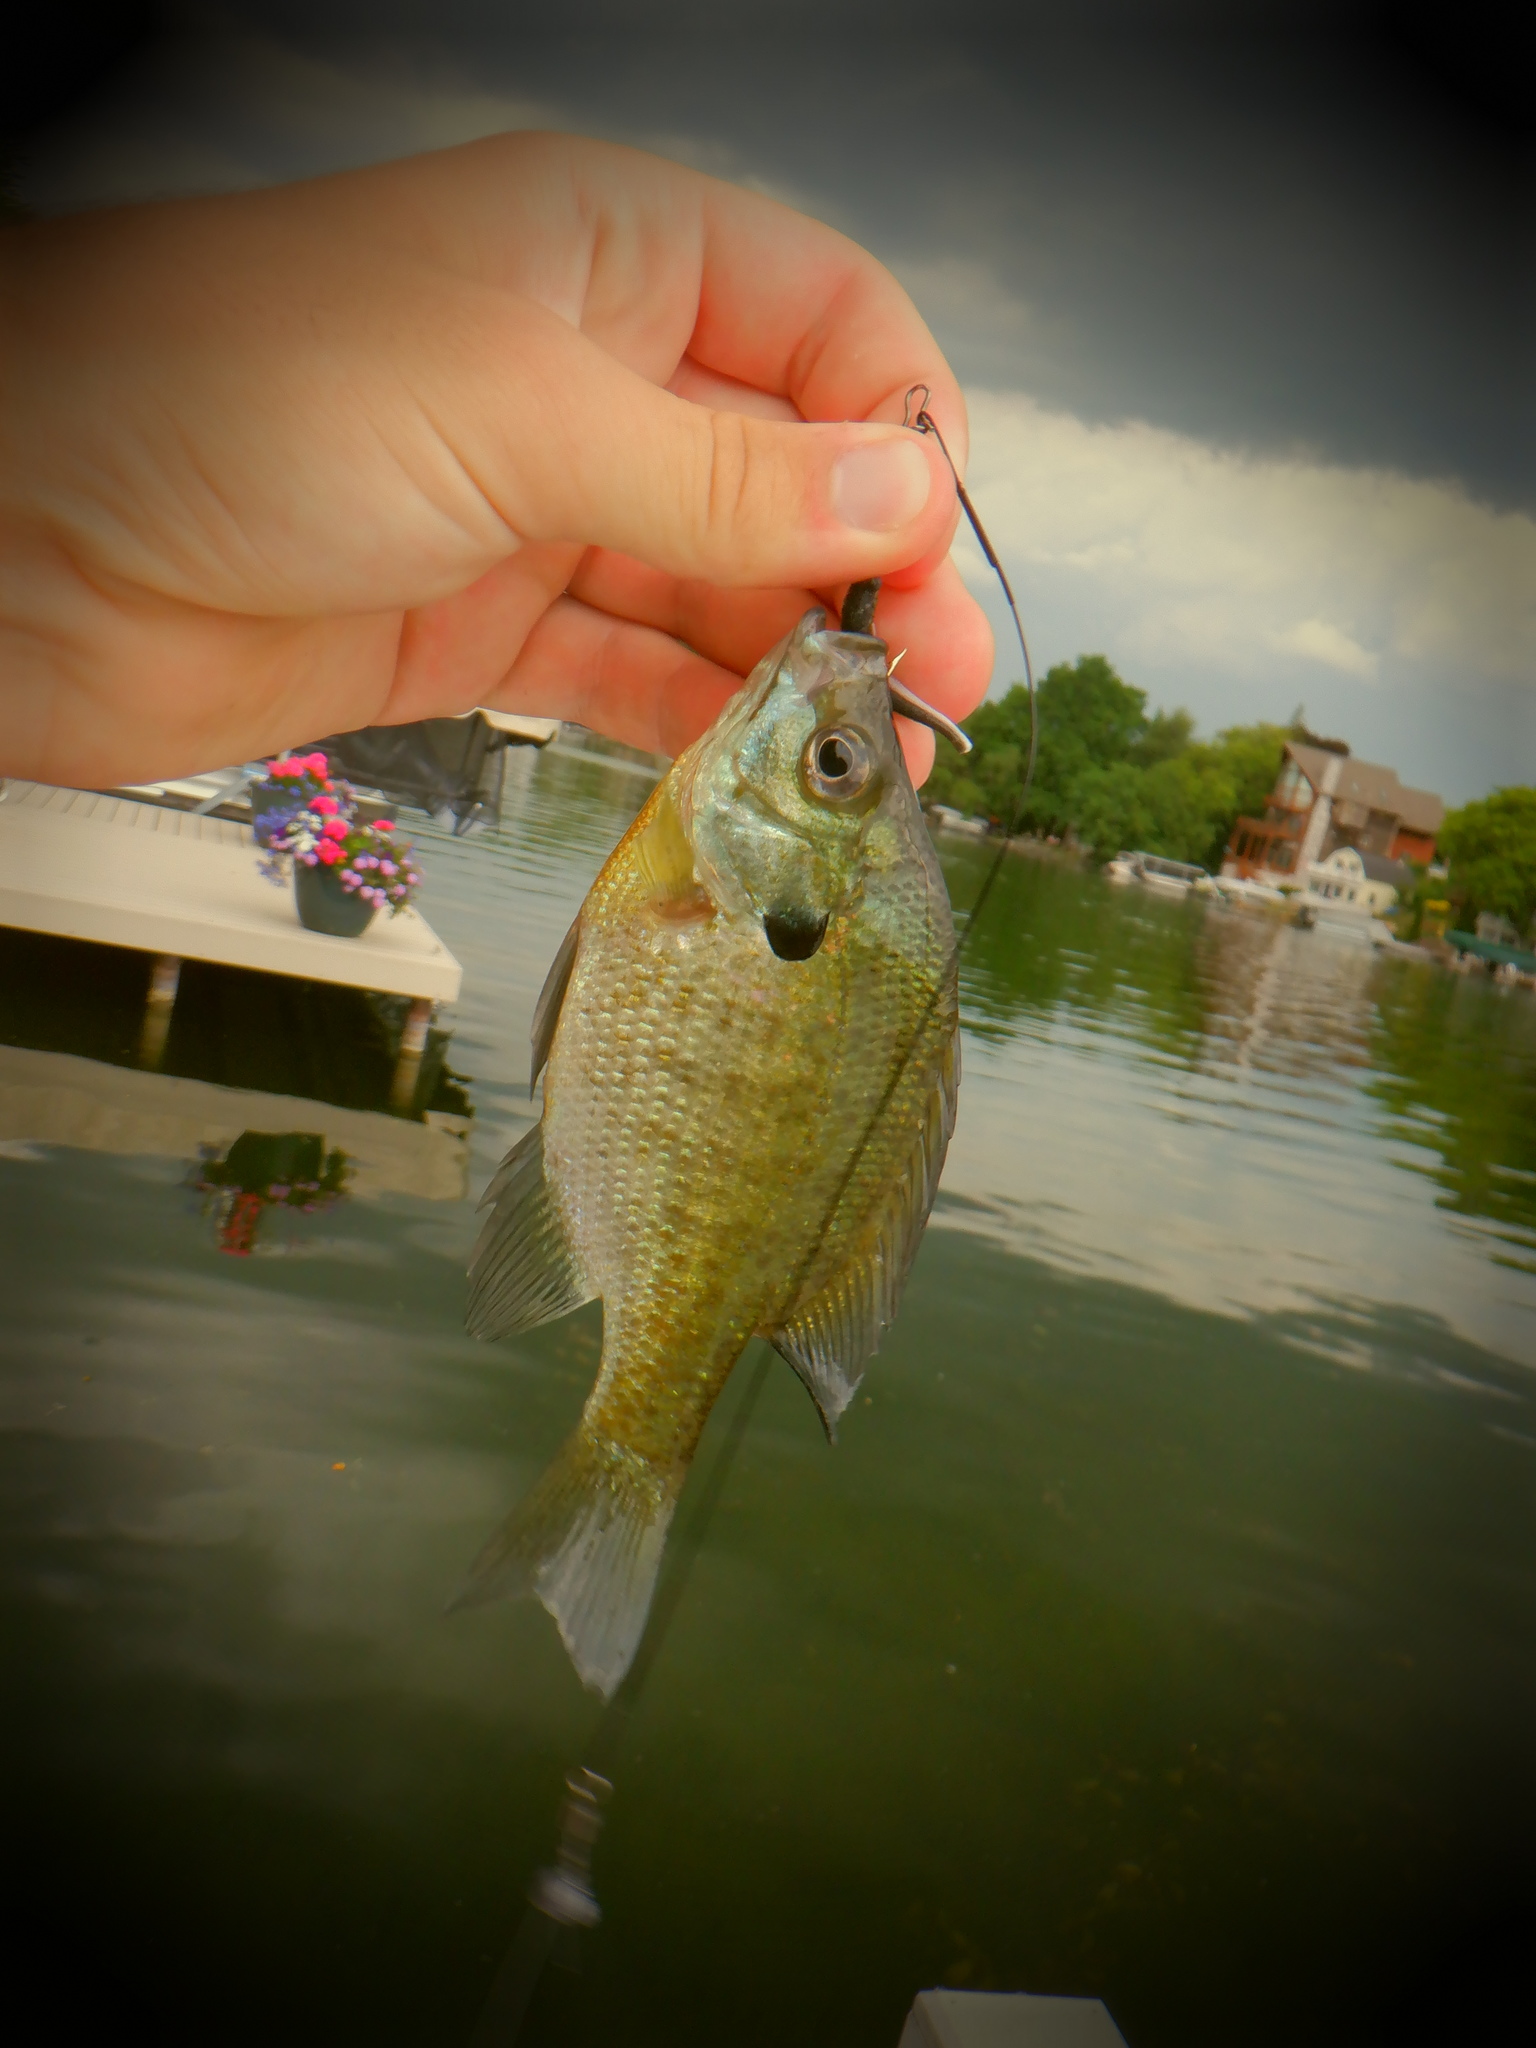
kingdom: Animalia
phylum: Chordata
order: Perciformes
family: Centrarchidae
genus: Lepomis
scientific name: Lepomis macrochirus
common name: Bluegill
